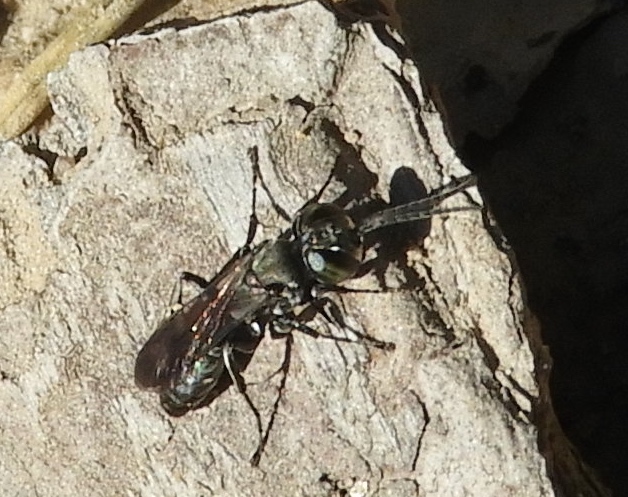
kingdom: Animalia
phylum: Arthropoda
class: Insecta
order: Hymenoptera
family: Crabronidae
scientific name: Crabronidae
